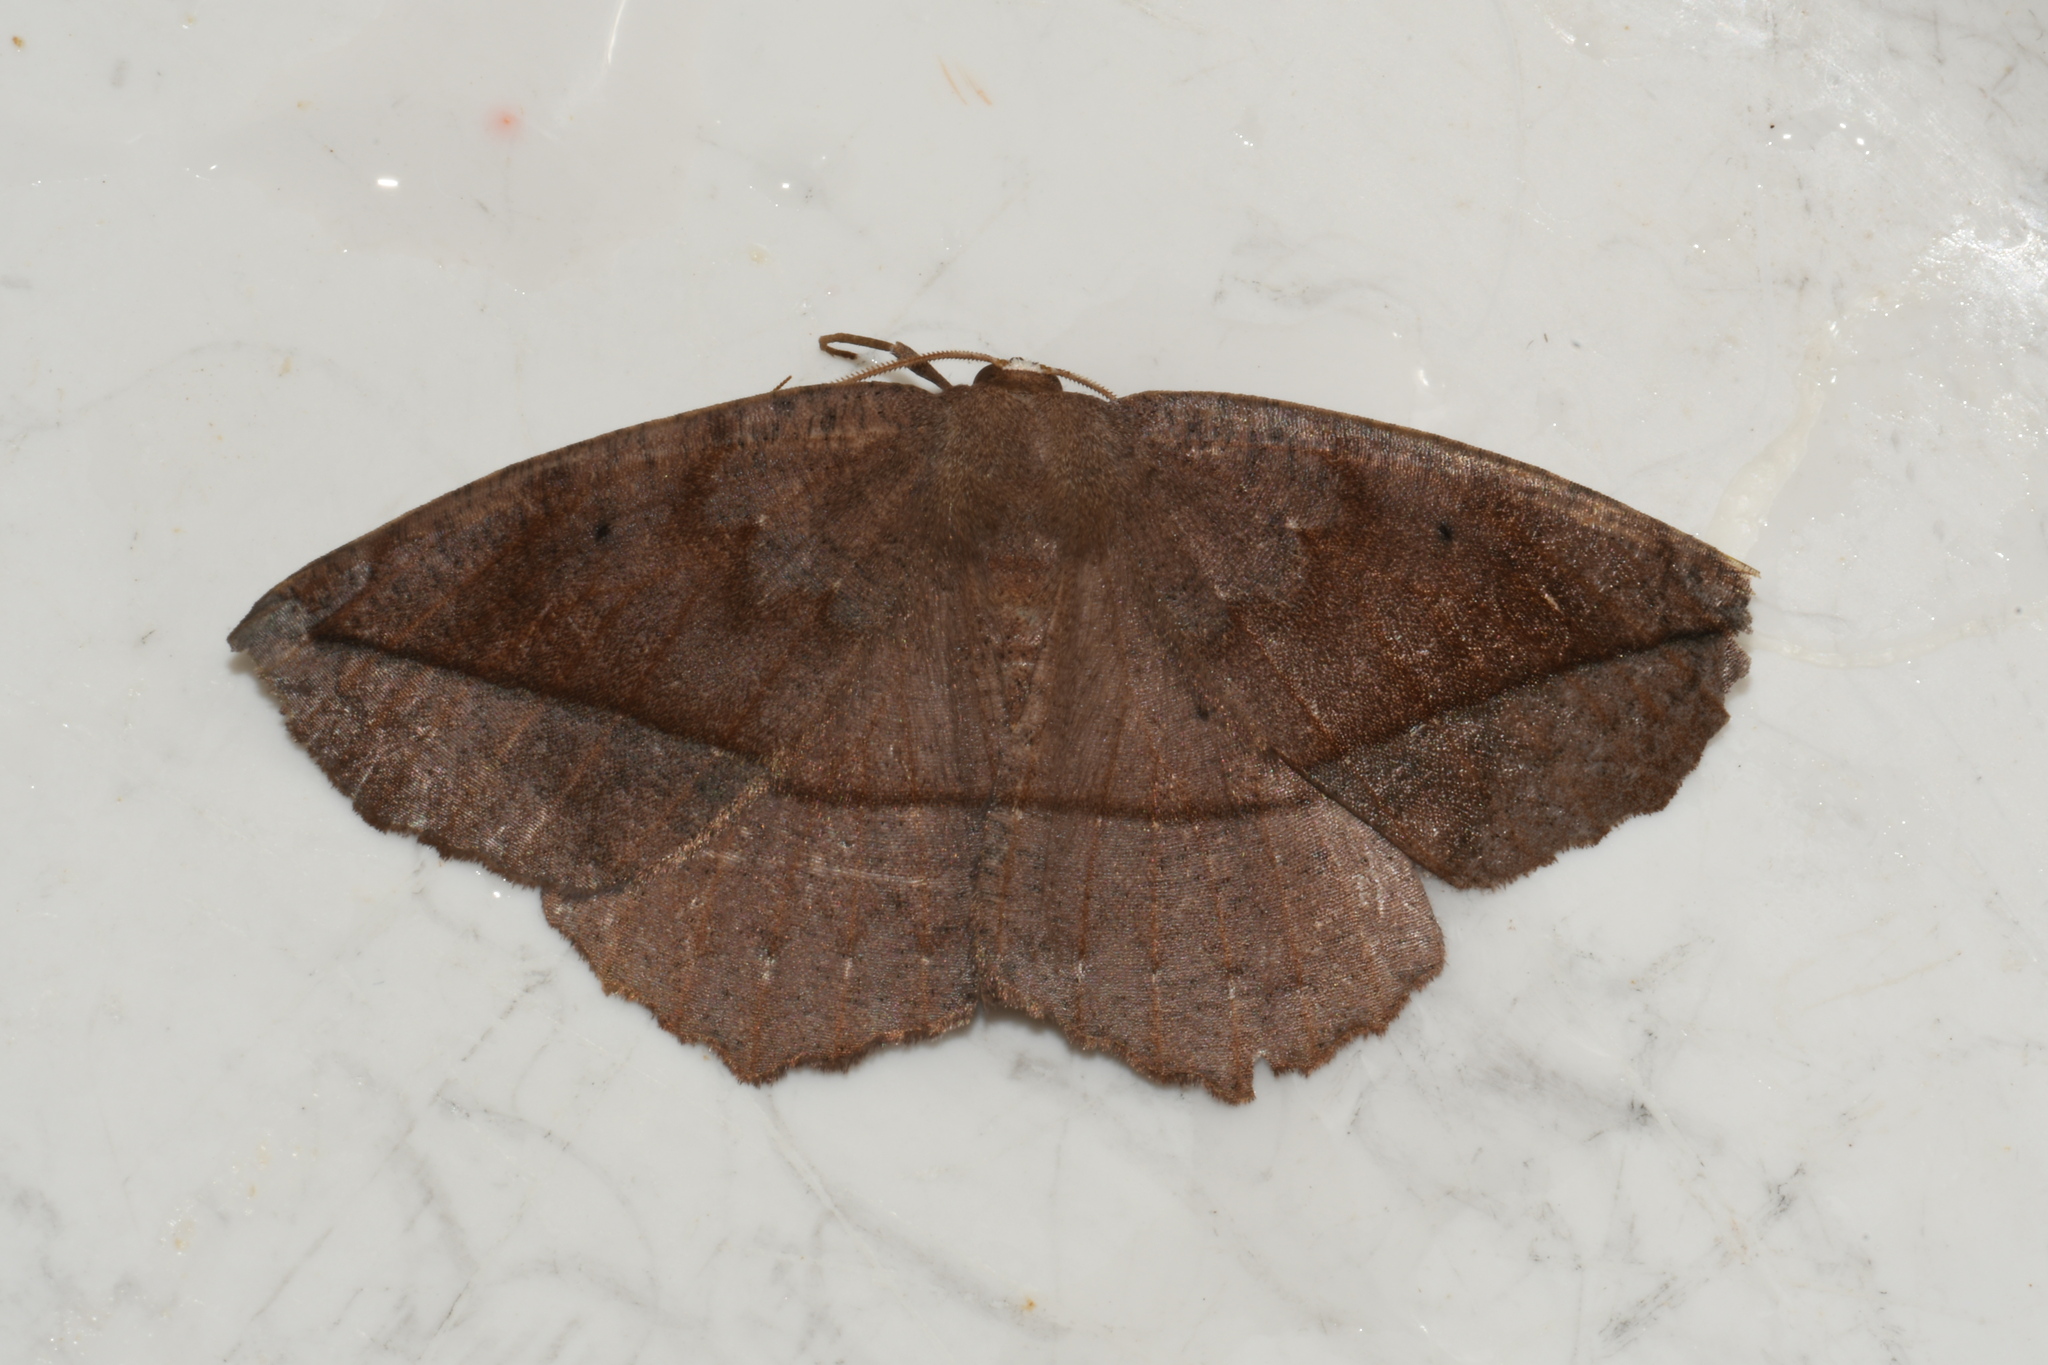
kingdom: Animalia
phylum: Arthropoda
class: Insecta
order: Lepidoptera
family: Geometridae
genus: Eutrapela
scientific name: Eutrapela clemataria
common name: Curved-toothed geometer
